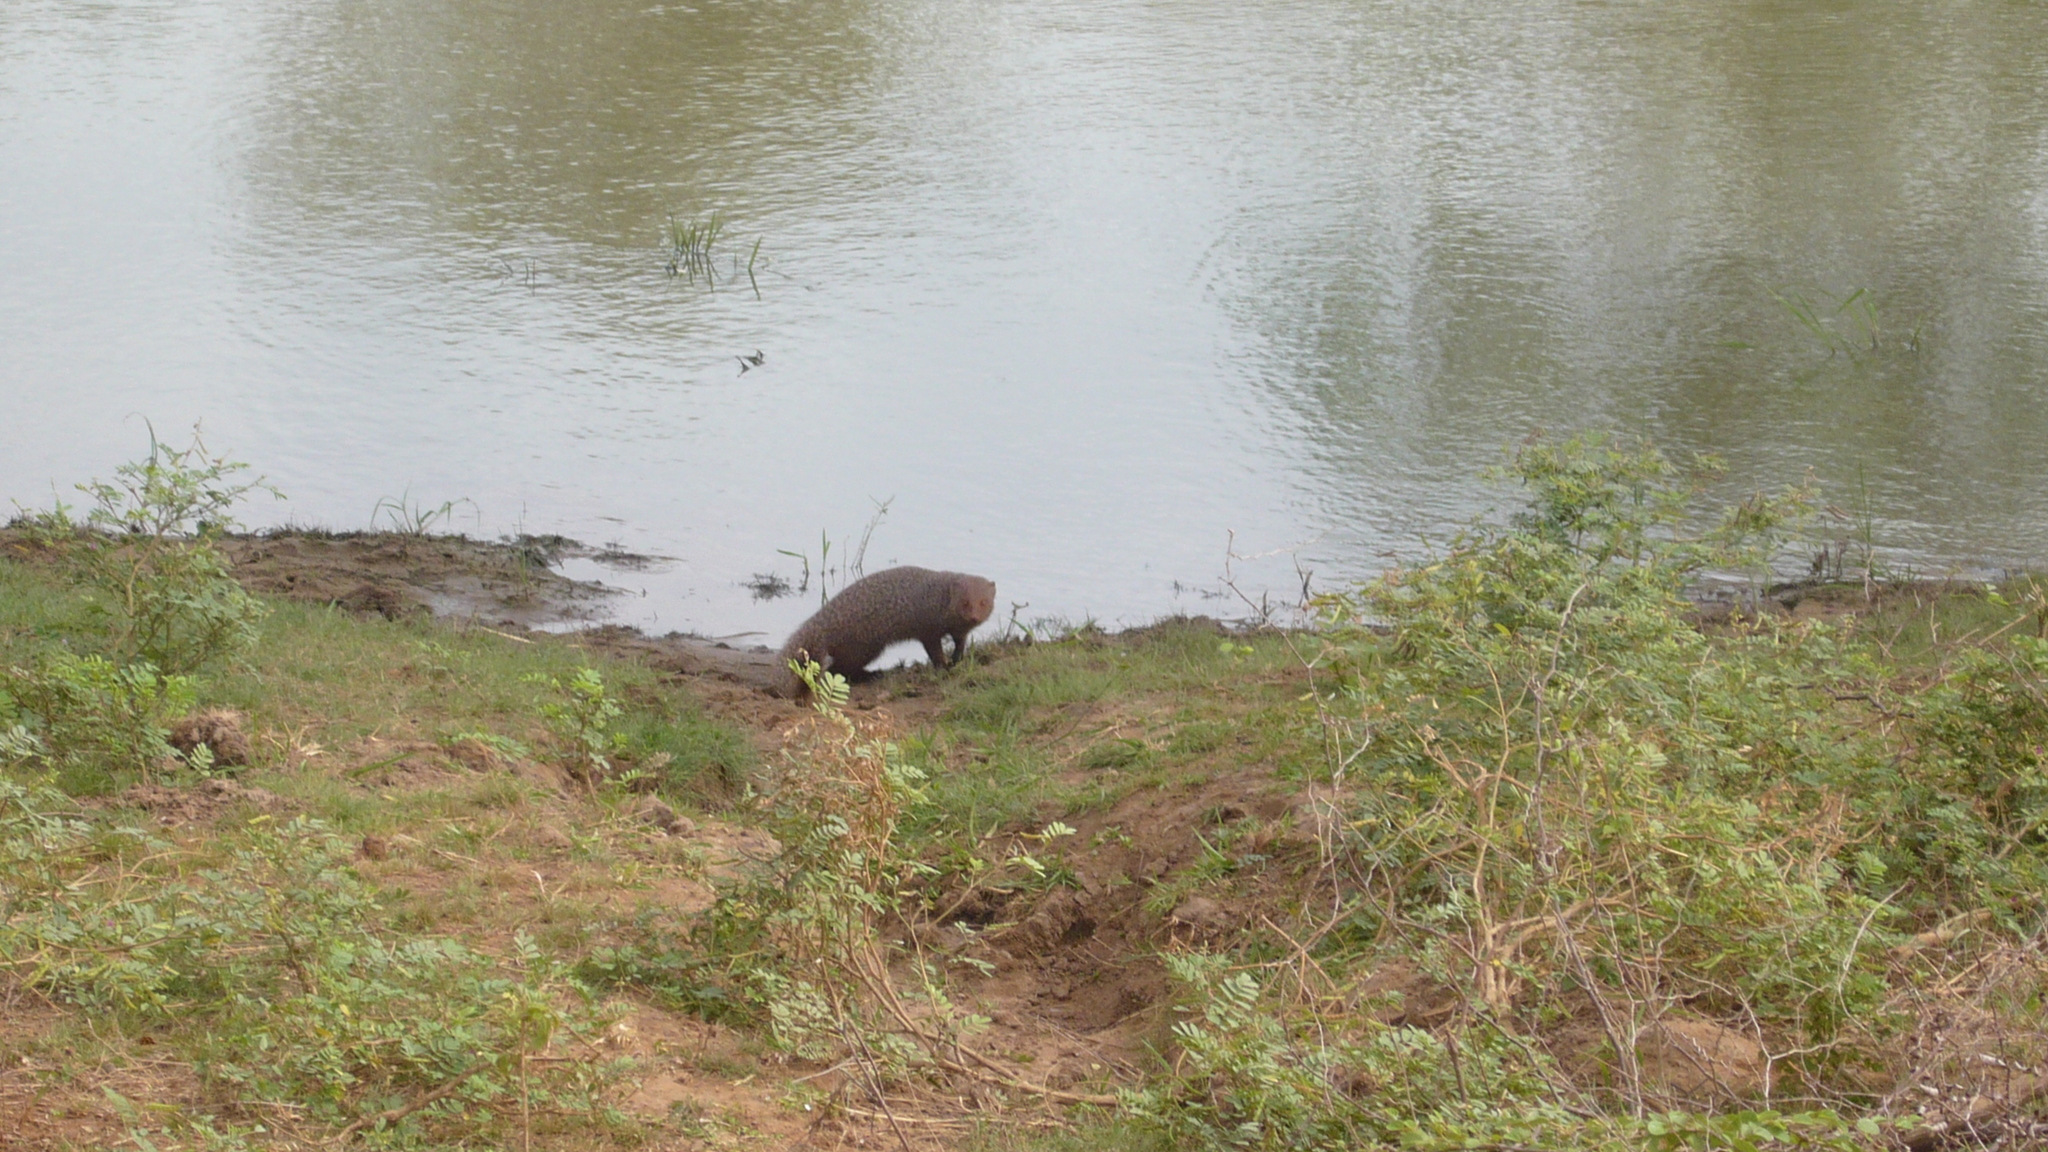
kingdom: Animalia
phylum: Chordata
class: Mammalia
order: Carnivora
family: Herpestidae
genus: Herpestes
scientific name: Herpestes smithii
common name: Ruddy mongoose
